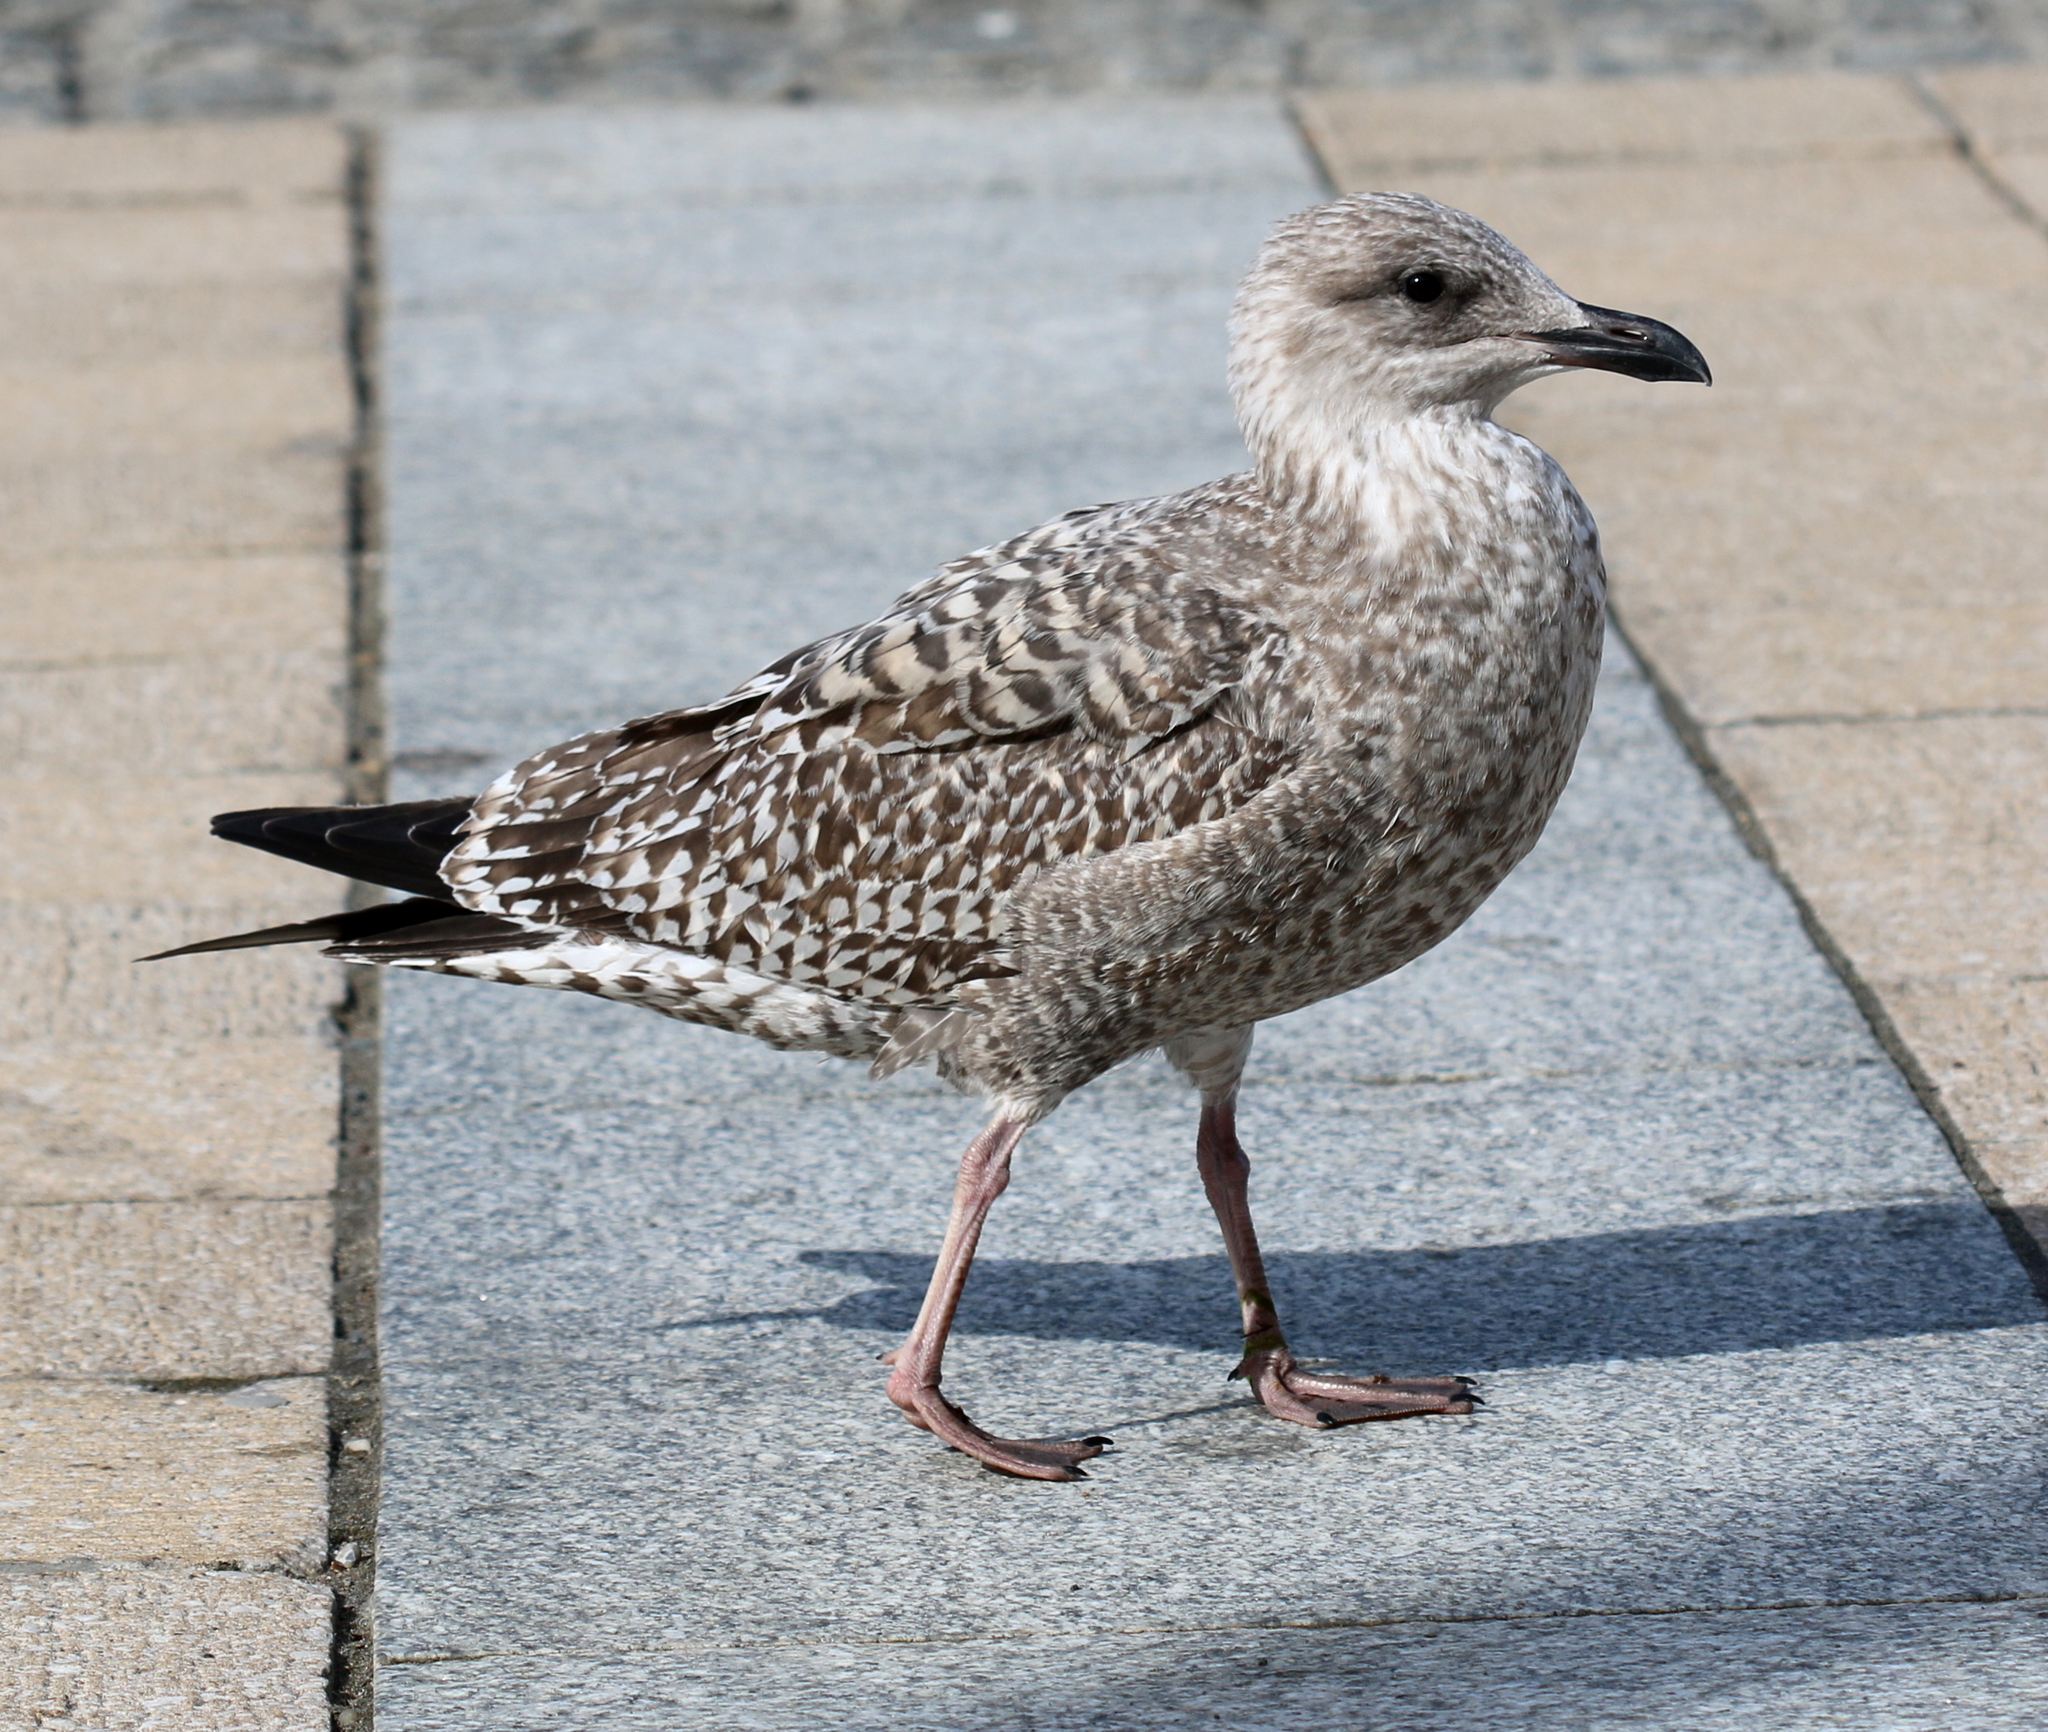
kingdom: Animalia
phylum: Chordata
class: Aves
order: Charadriiformes
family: Laridae
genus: Larus
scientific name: Larus argentatus
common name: Herring gull
